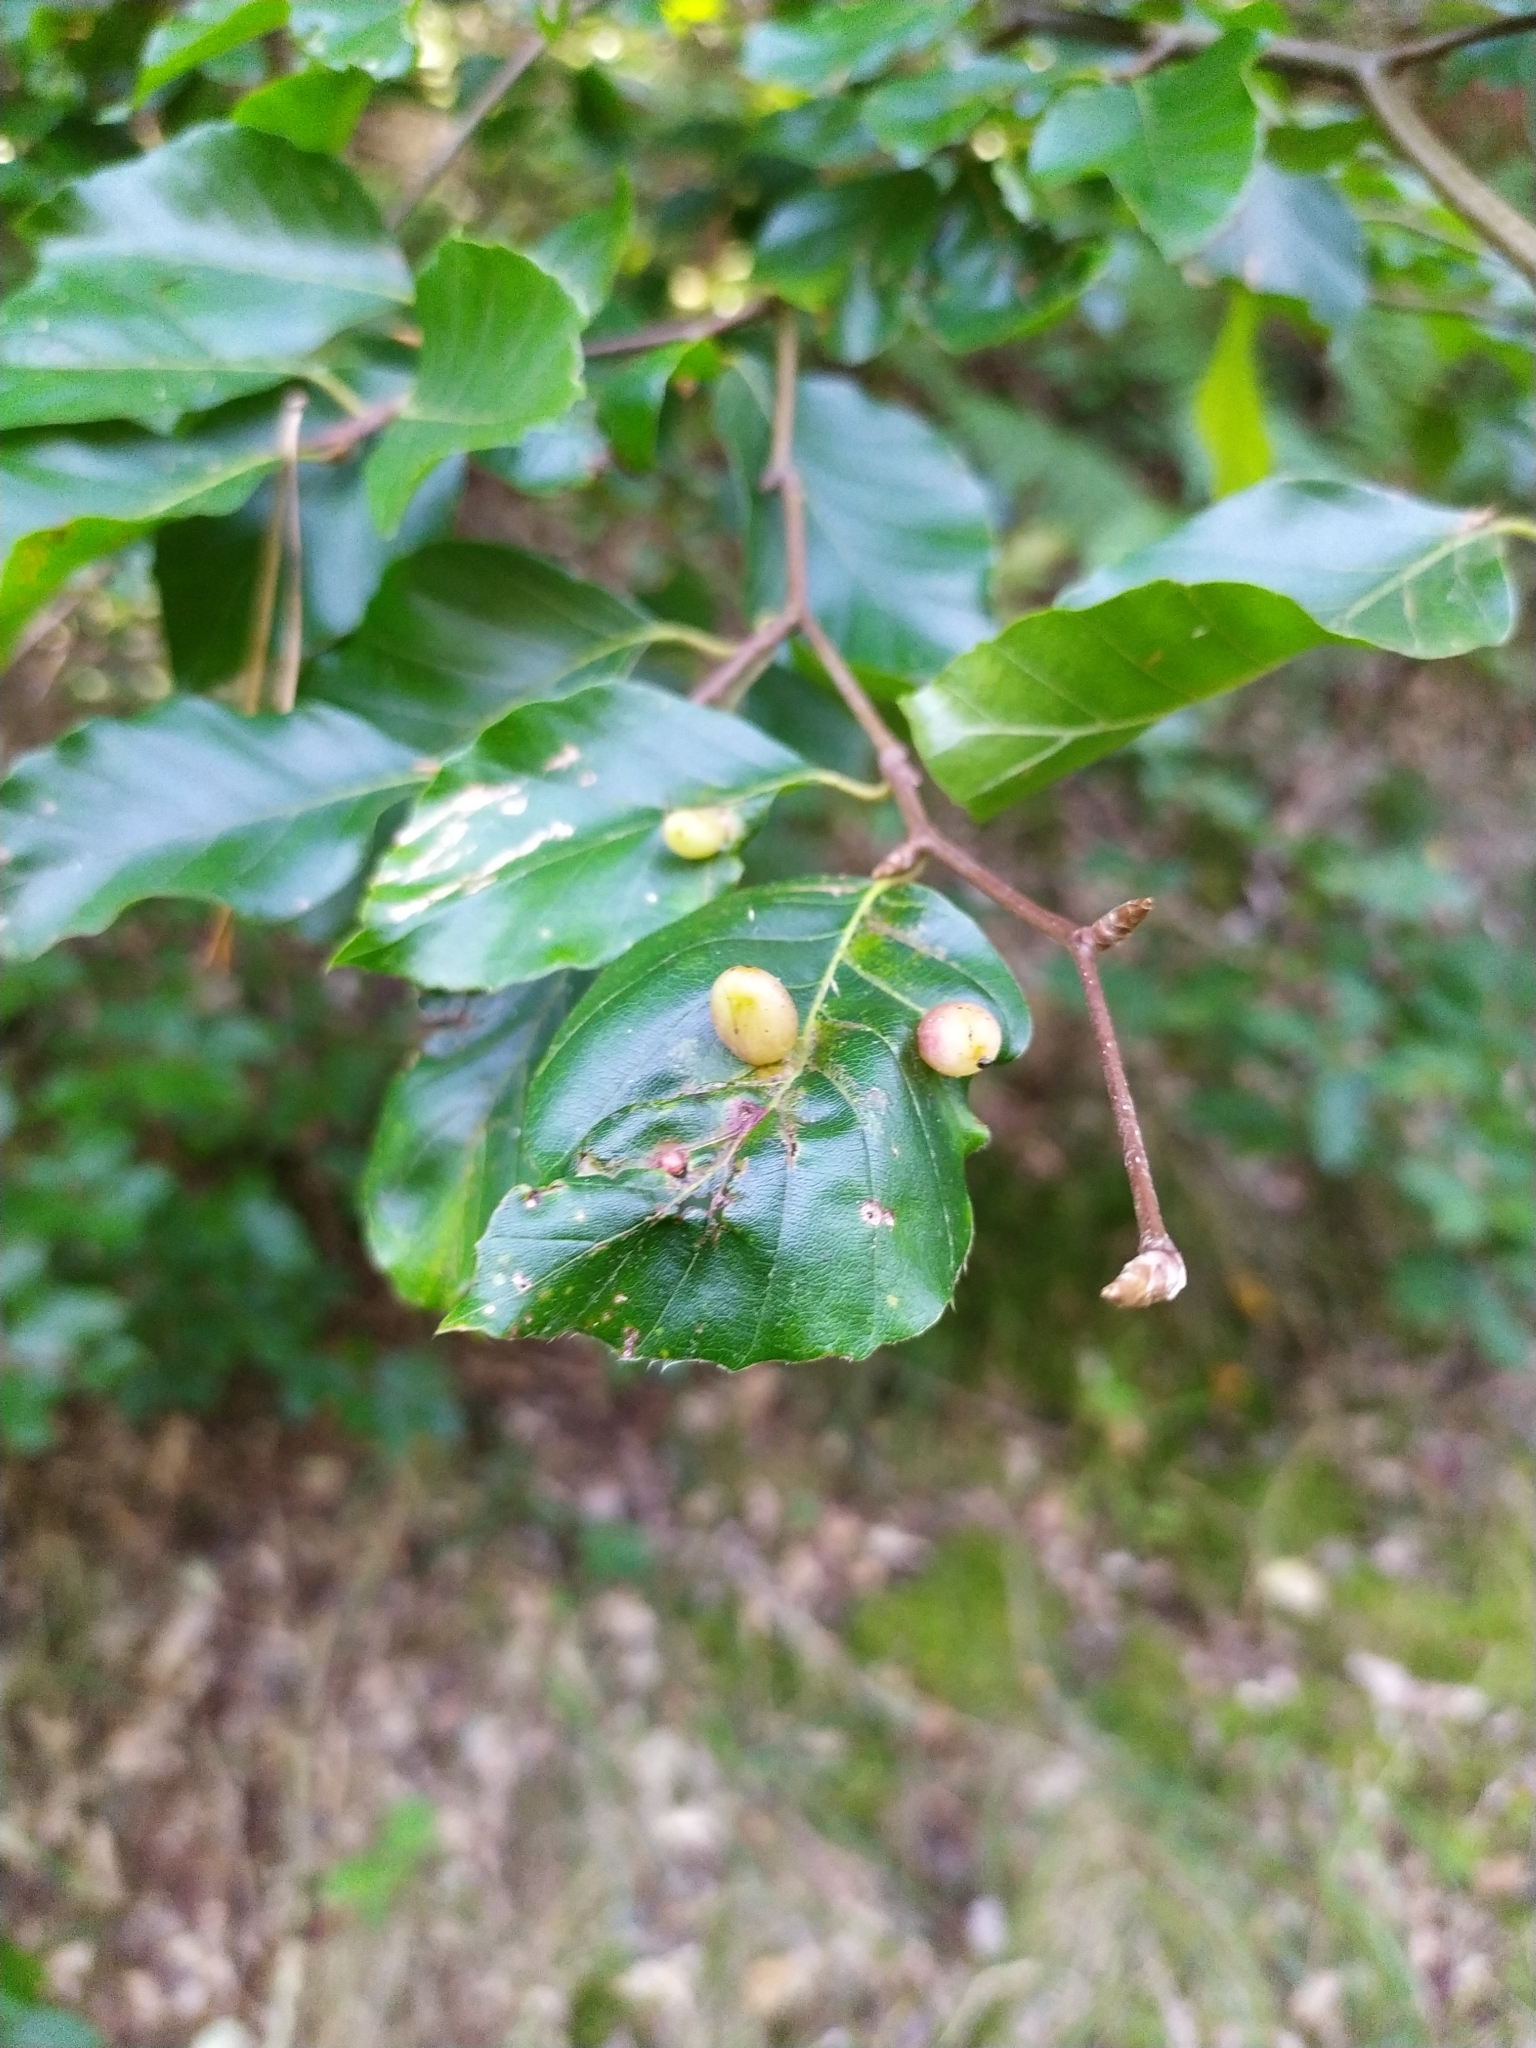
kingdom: Animalia
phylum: Arthropoda
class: Insecta
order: Diptera
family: Cecidomyiidae
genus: Mikiola
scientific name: Mikiola fagi
